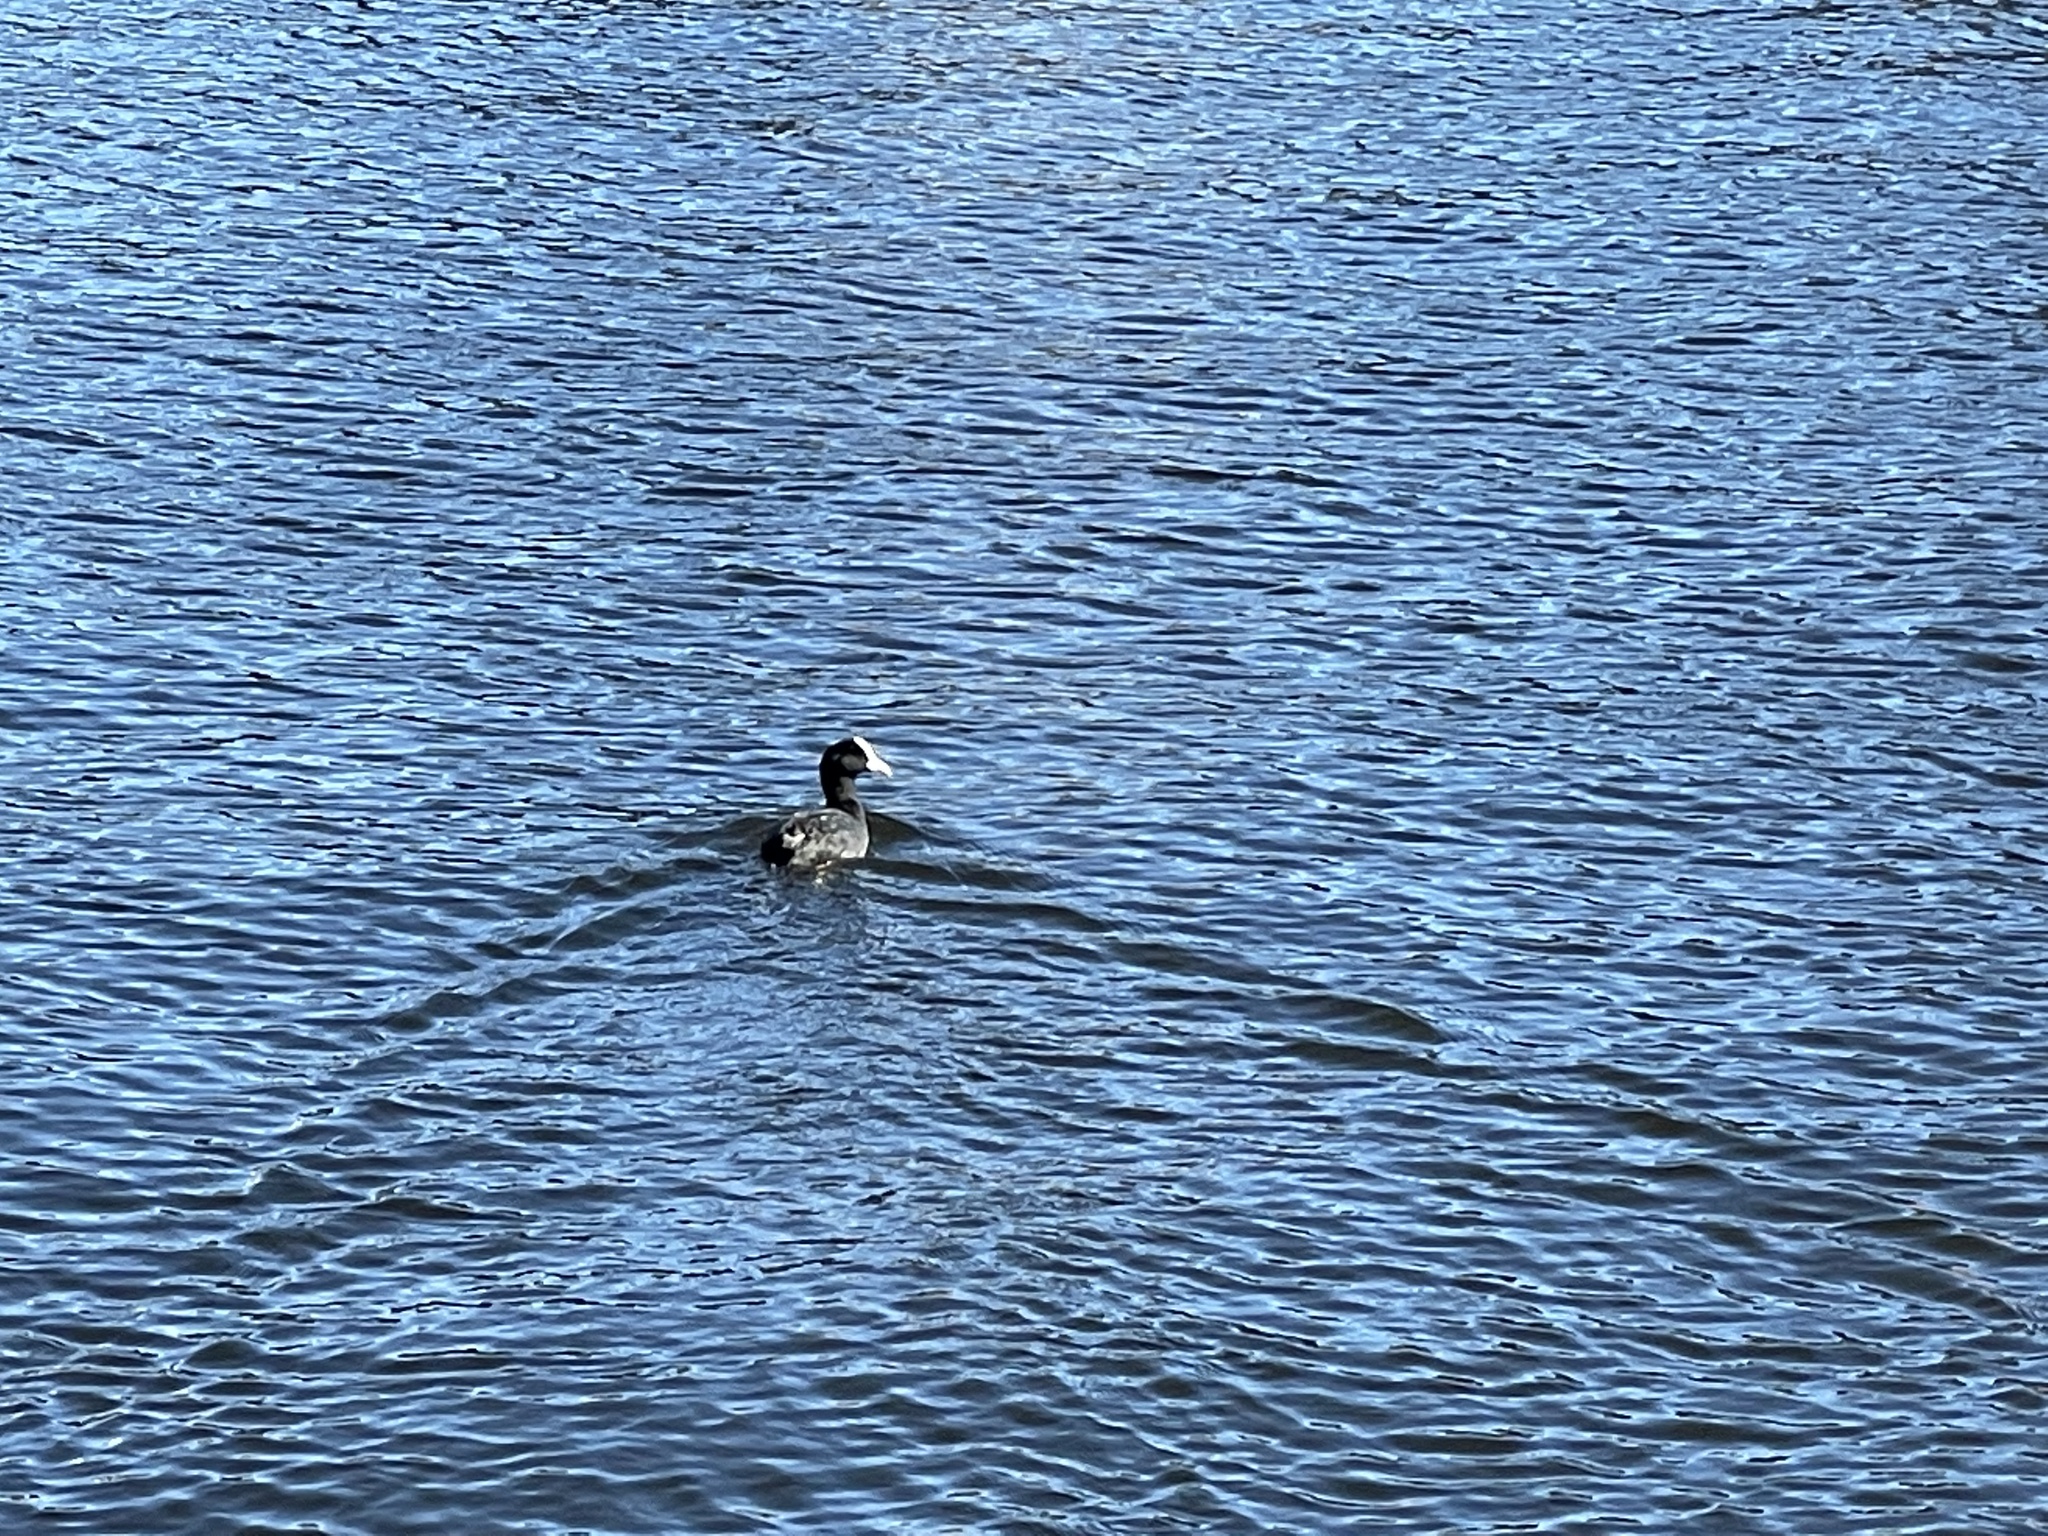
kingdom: Animalia
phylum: Chordata
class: Aves
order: Gruiformes
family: Rallidae
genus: Fulica
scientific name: Fulica atra
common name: Eurasian coot
